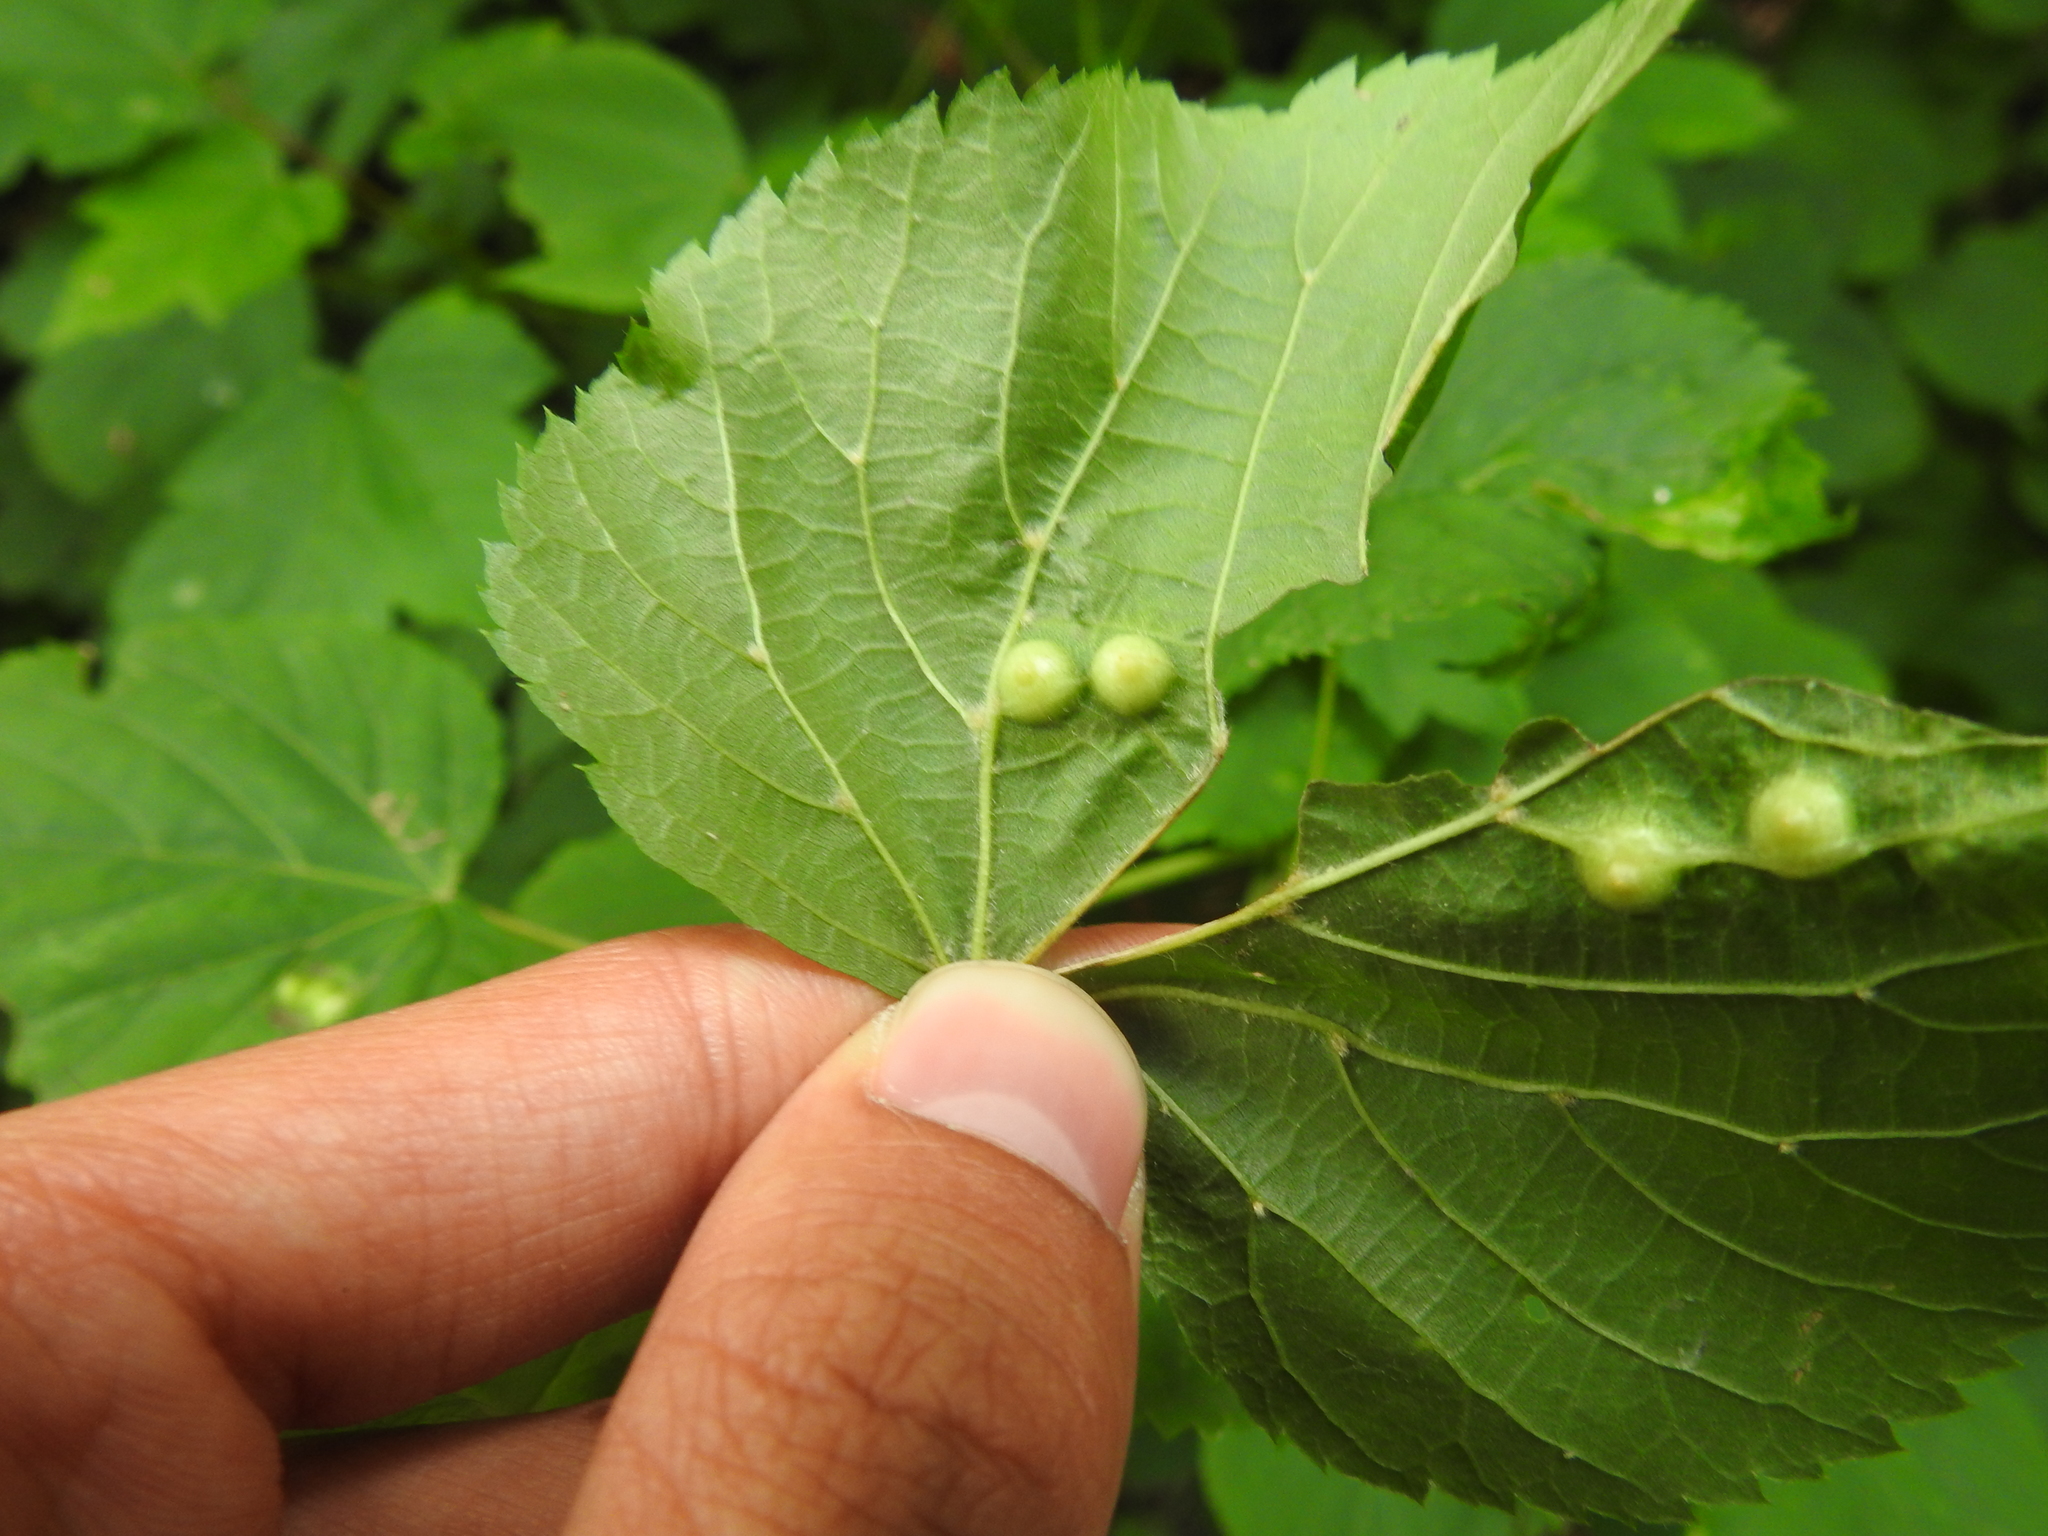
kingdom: Animalia
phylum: Arthropoda
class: Insecta
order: Diptera
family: Cecidomyiidae
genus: Didymomyia
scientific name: Didymomyia tiliacea
